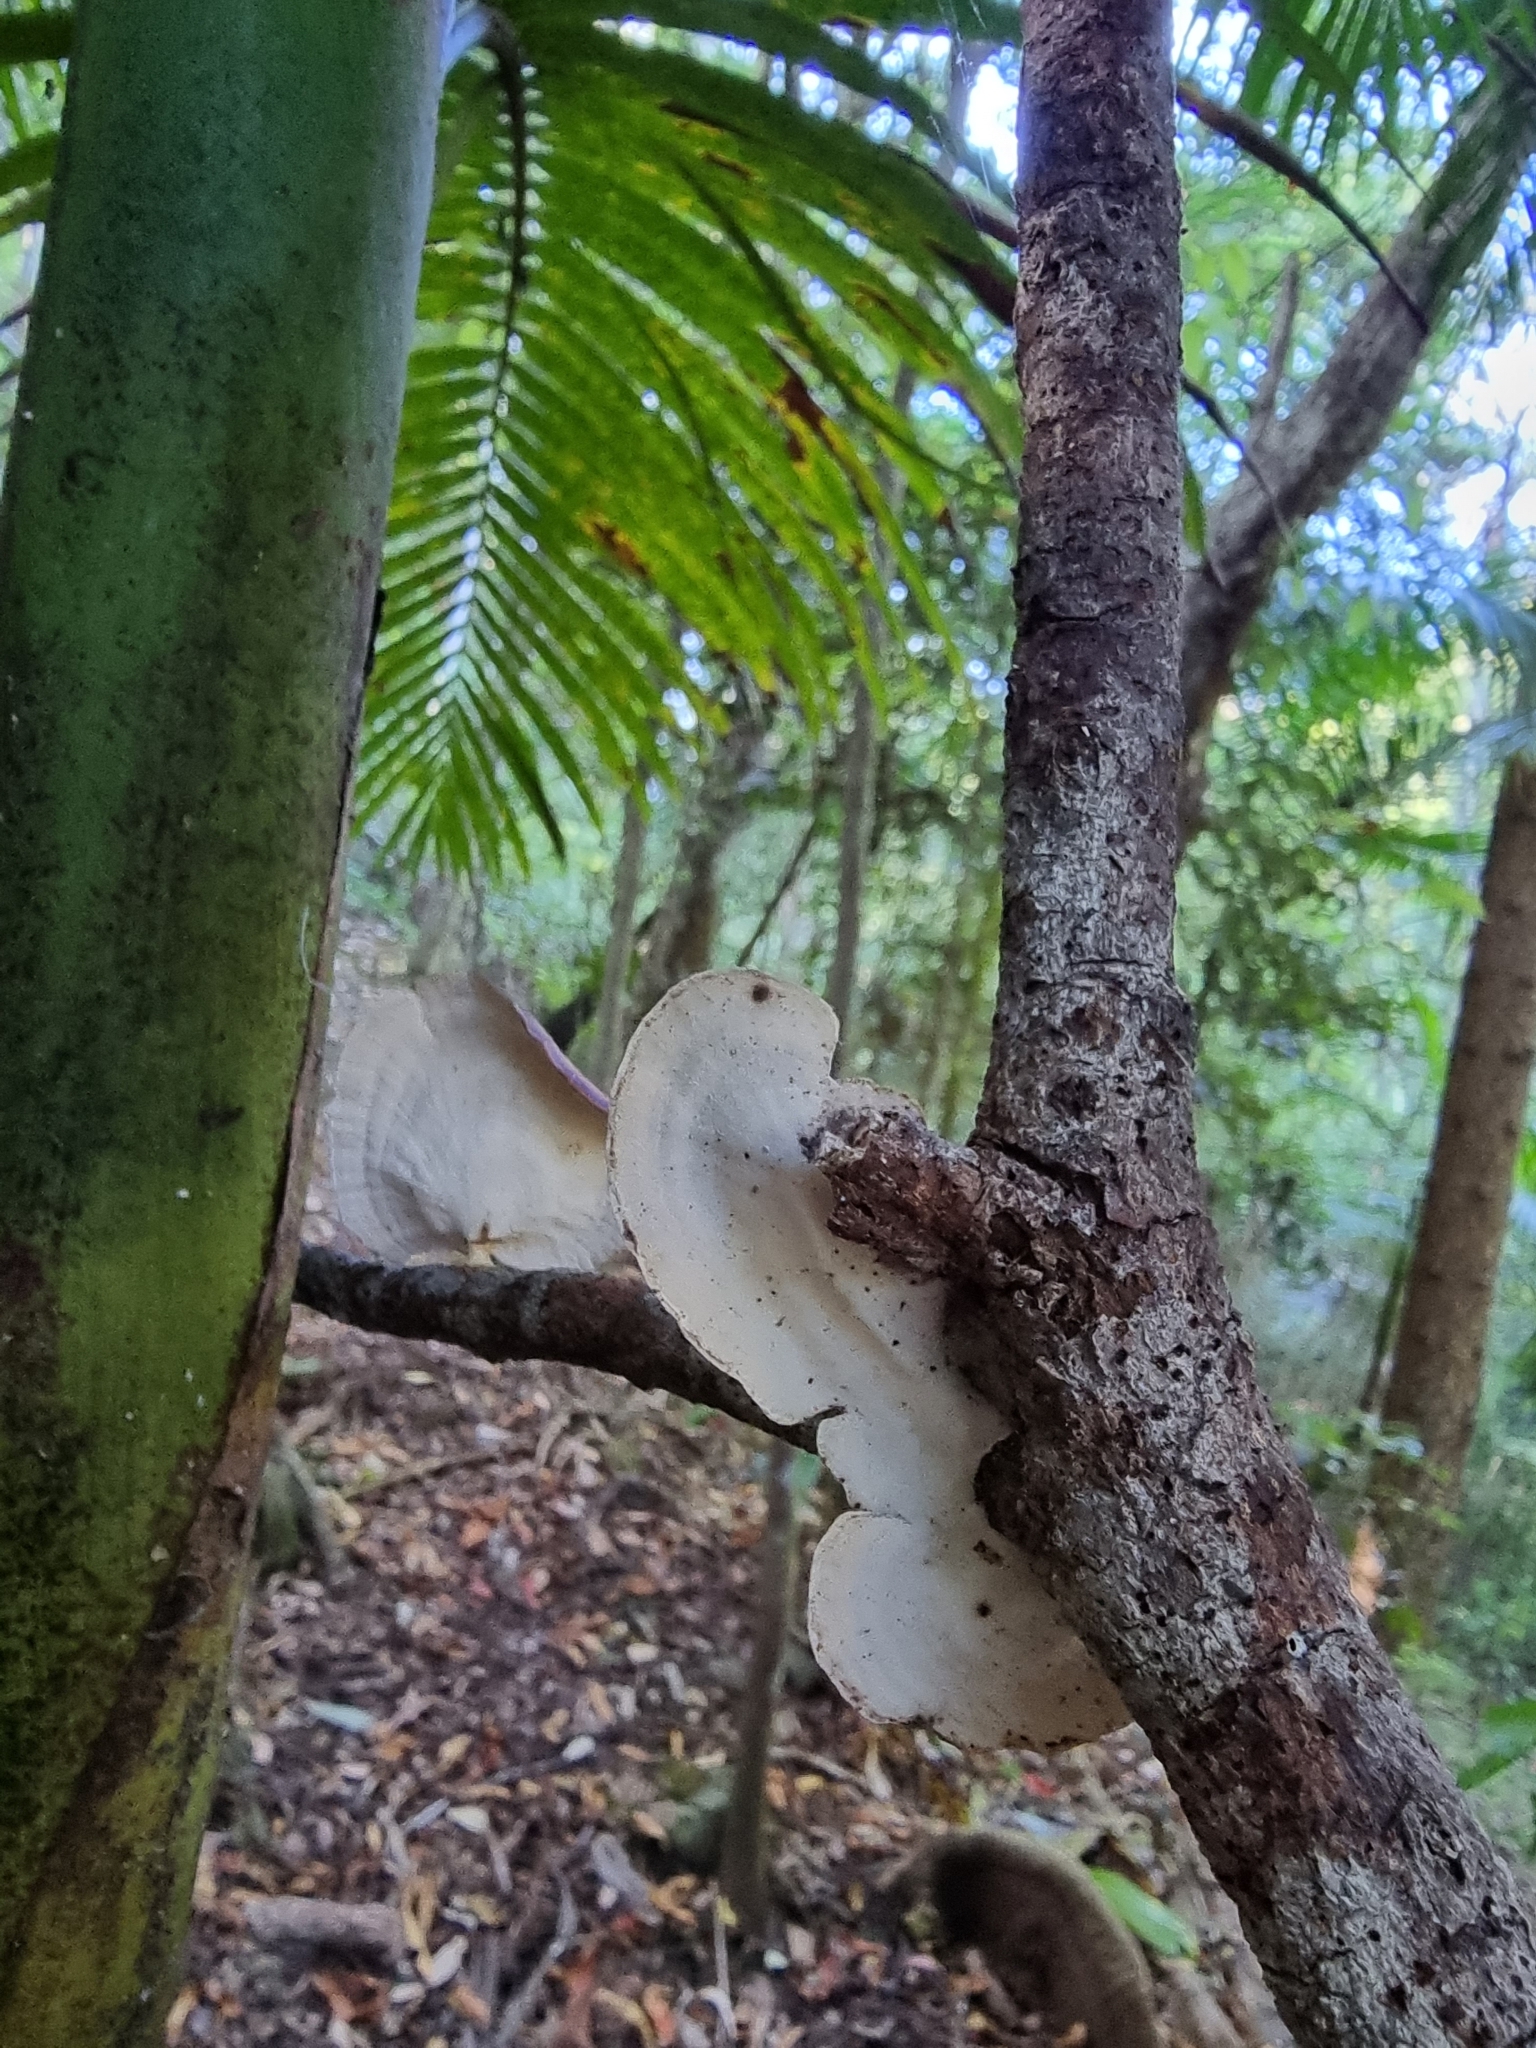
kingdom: Fungi
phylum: Basidiomycota
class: Agaricomycetes
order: Polyporales
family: Polyporaceae
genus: Microporus
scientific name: Microporus xanthopus
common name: Yellow-stemmed micropore
